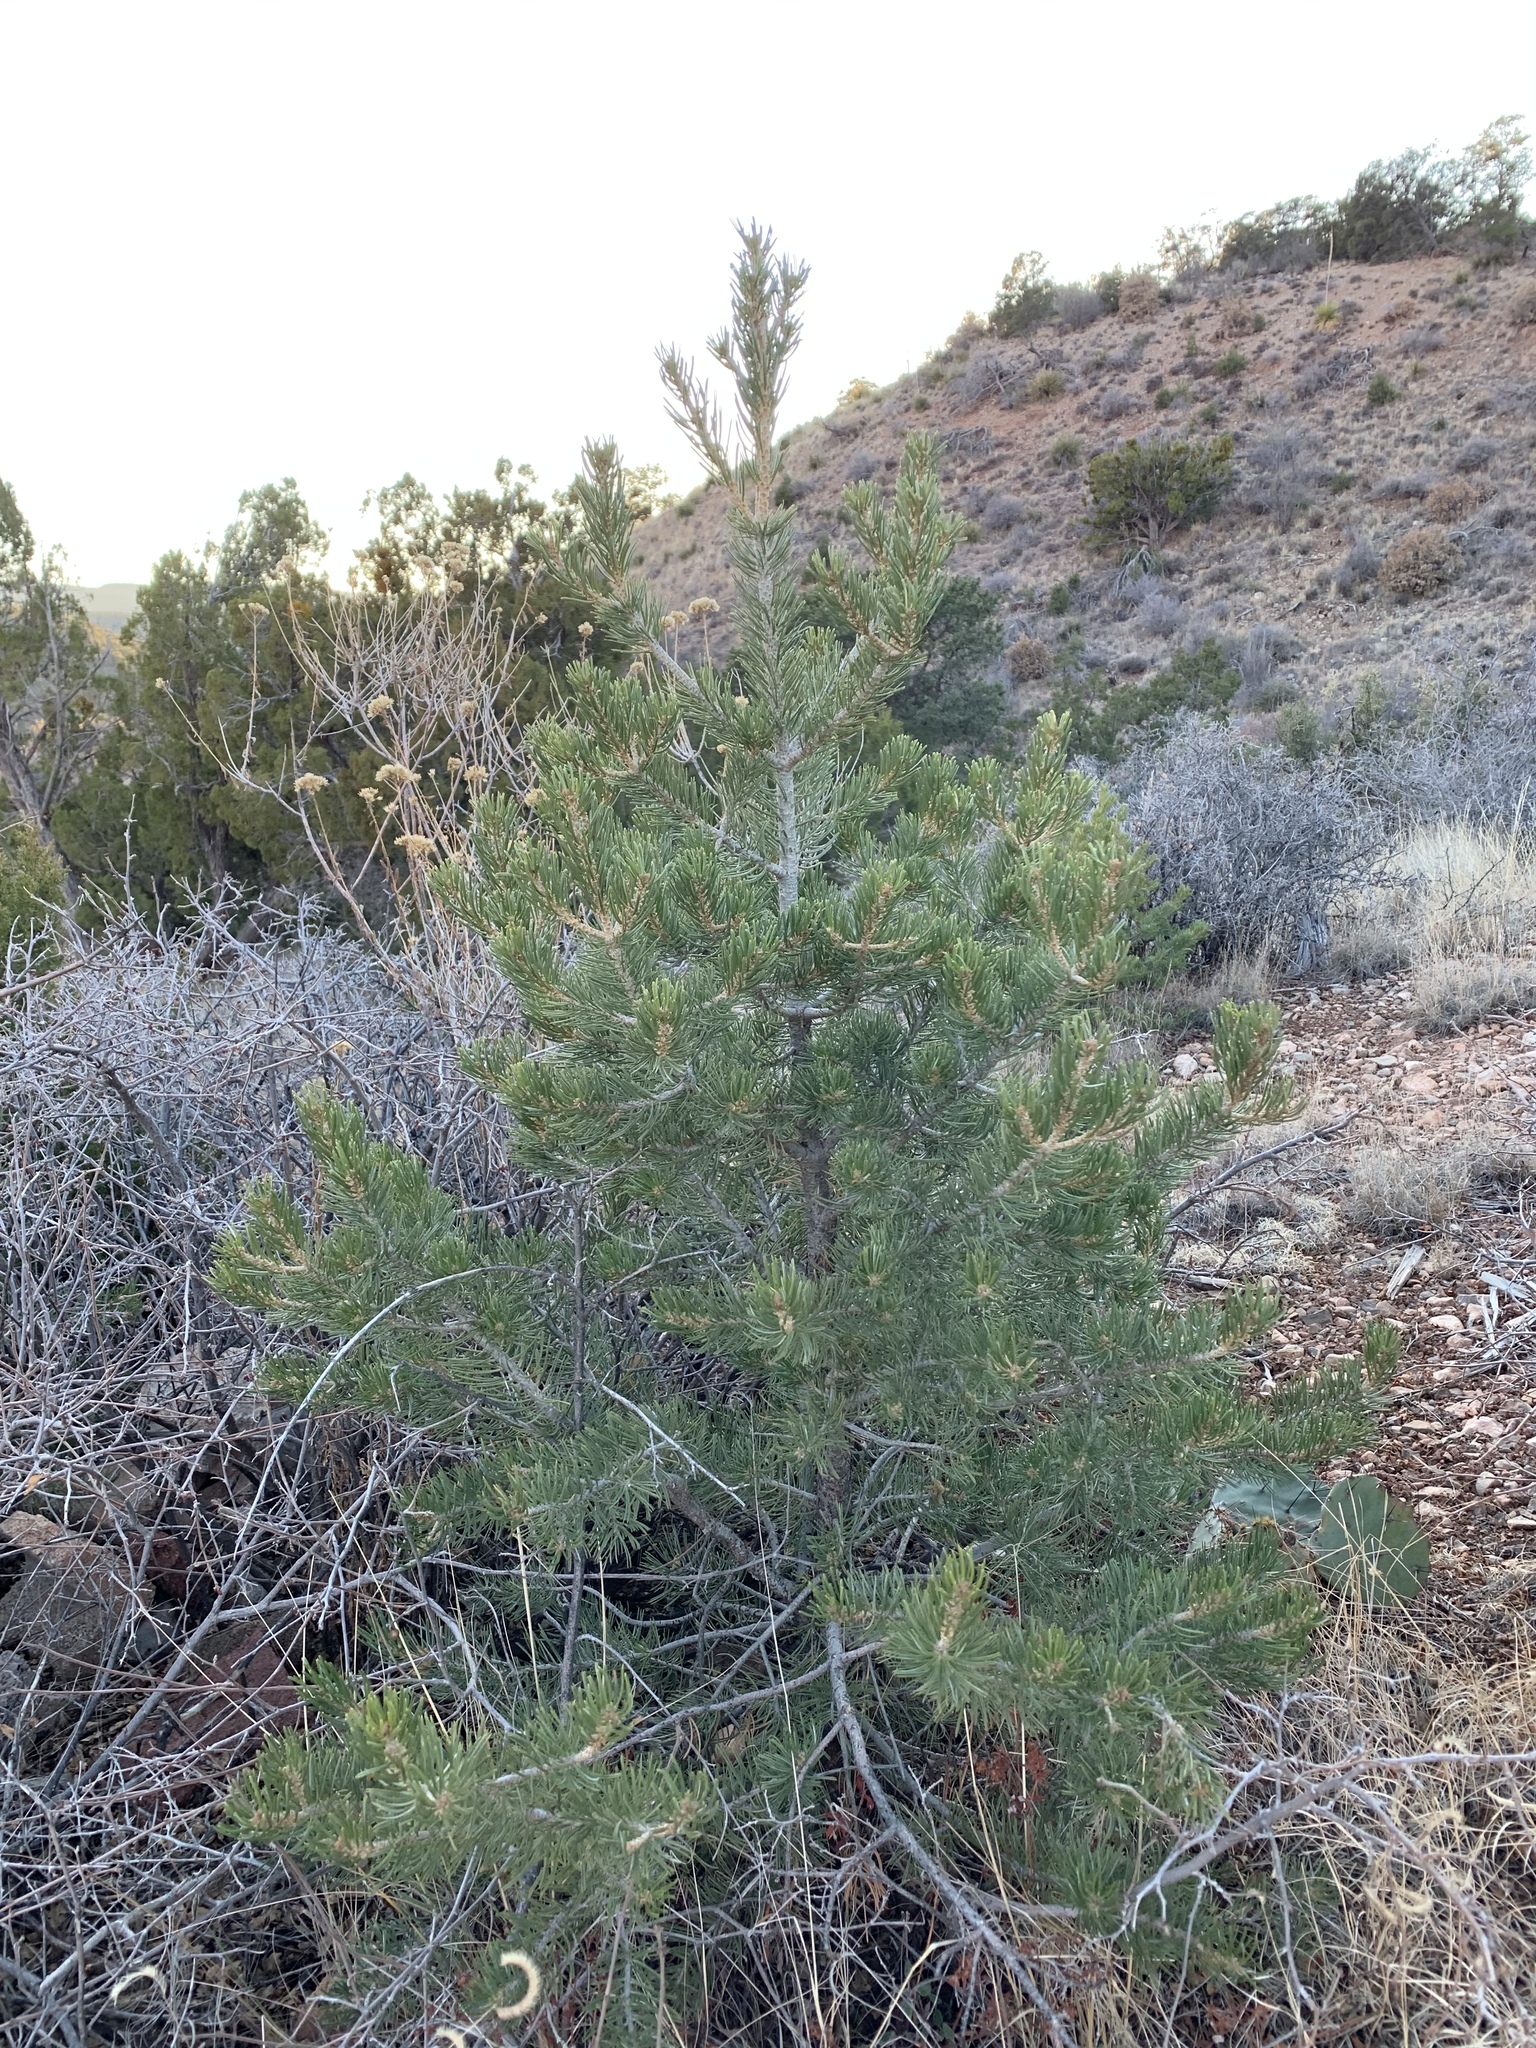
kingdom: Plantae
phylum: Tracheophyta
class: Pinopsida
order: Pinales
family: Pinaceae
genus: Pinus
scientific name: Pinus edulis
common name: Colorado pinyon
